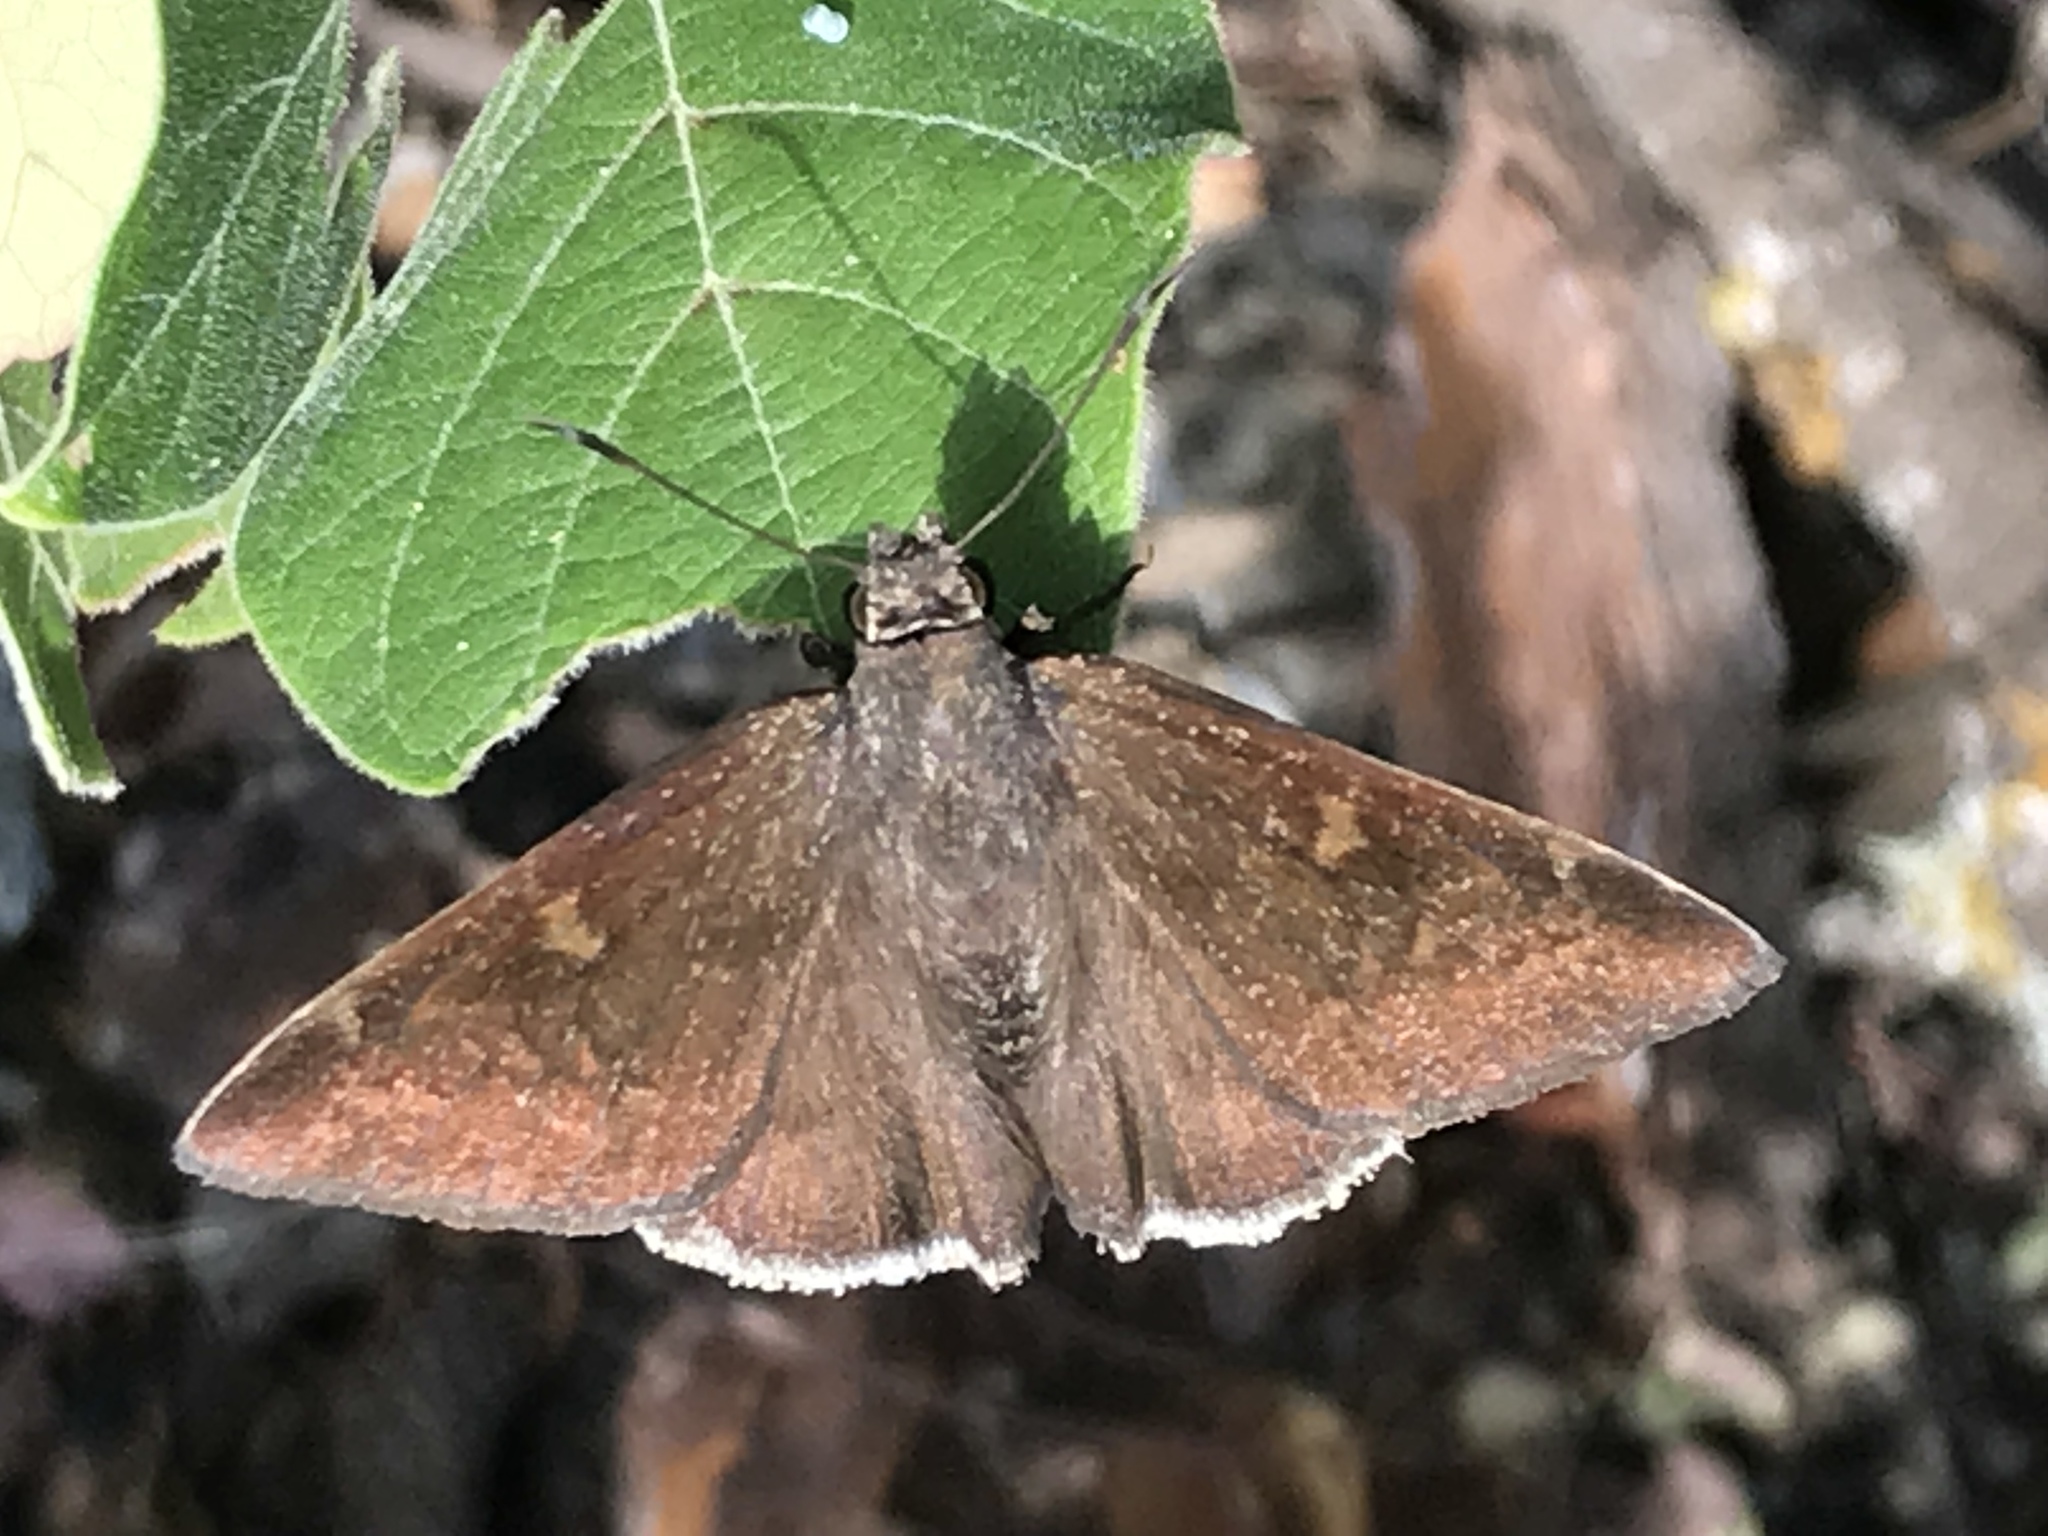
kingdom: Animalia
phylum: Arthropoda
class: Insecta
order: Lepidoptera
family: Hesperiidae
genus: Achalarus
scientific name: Achalarus Murgaria albociliatus
